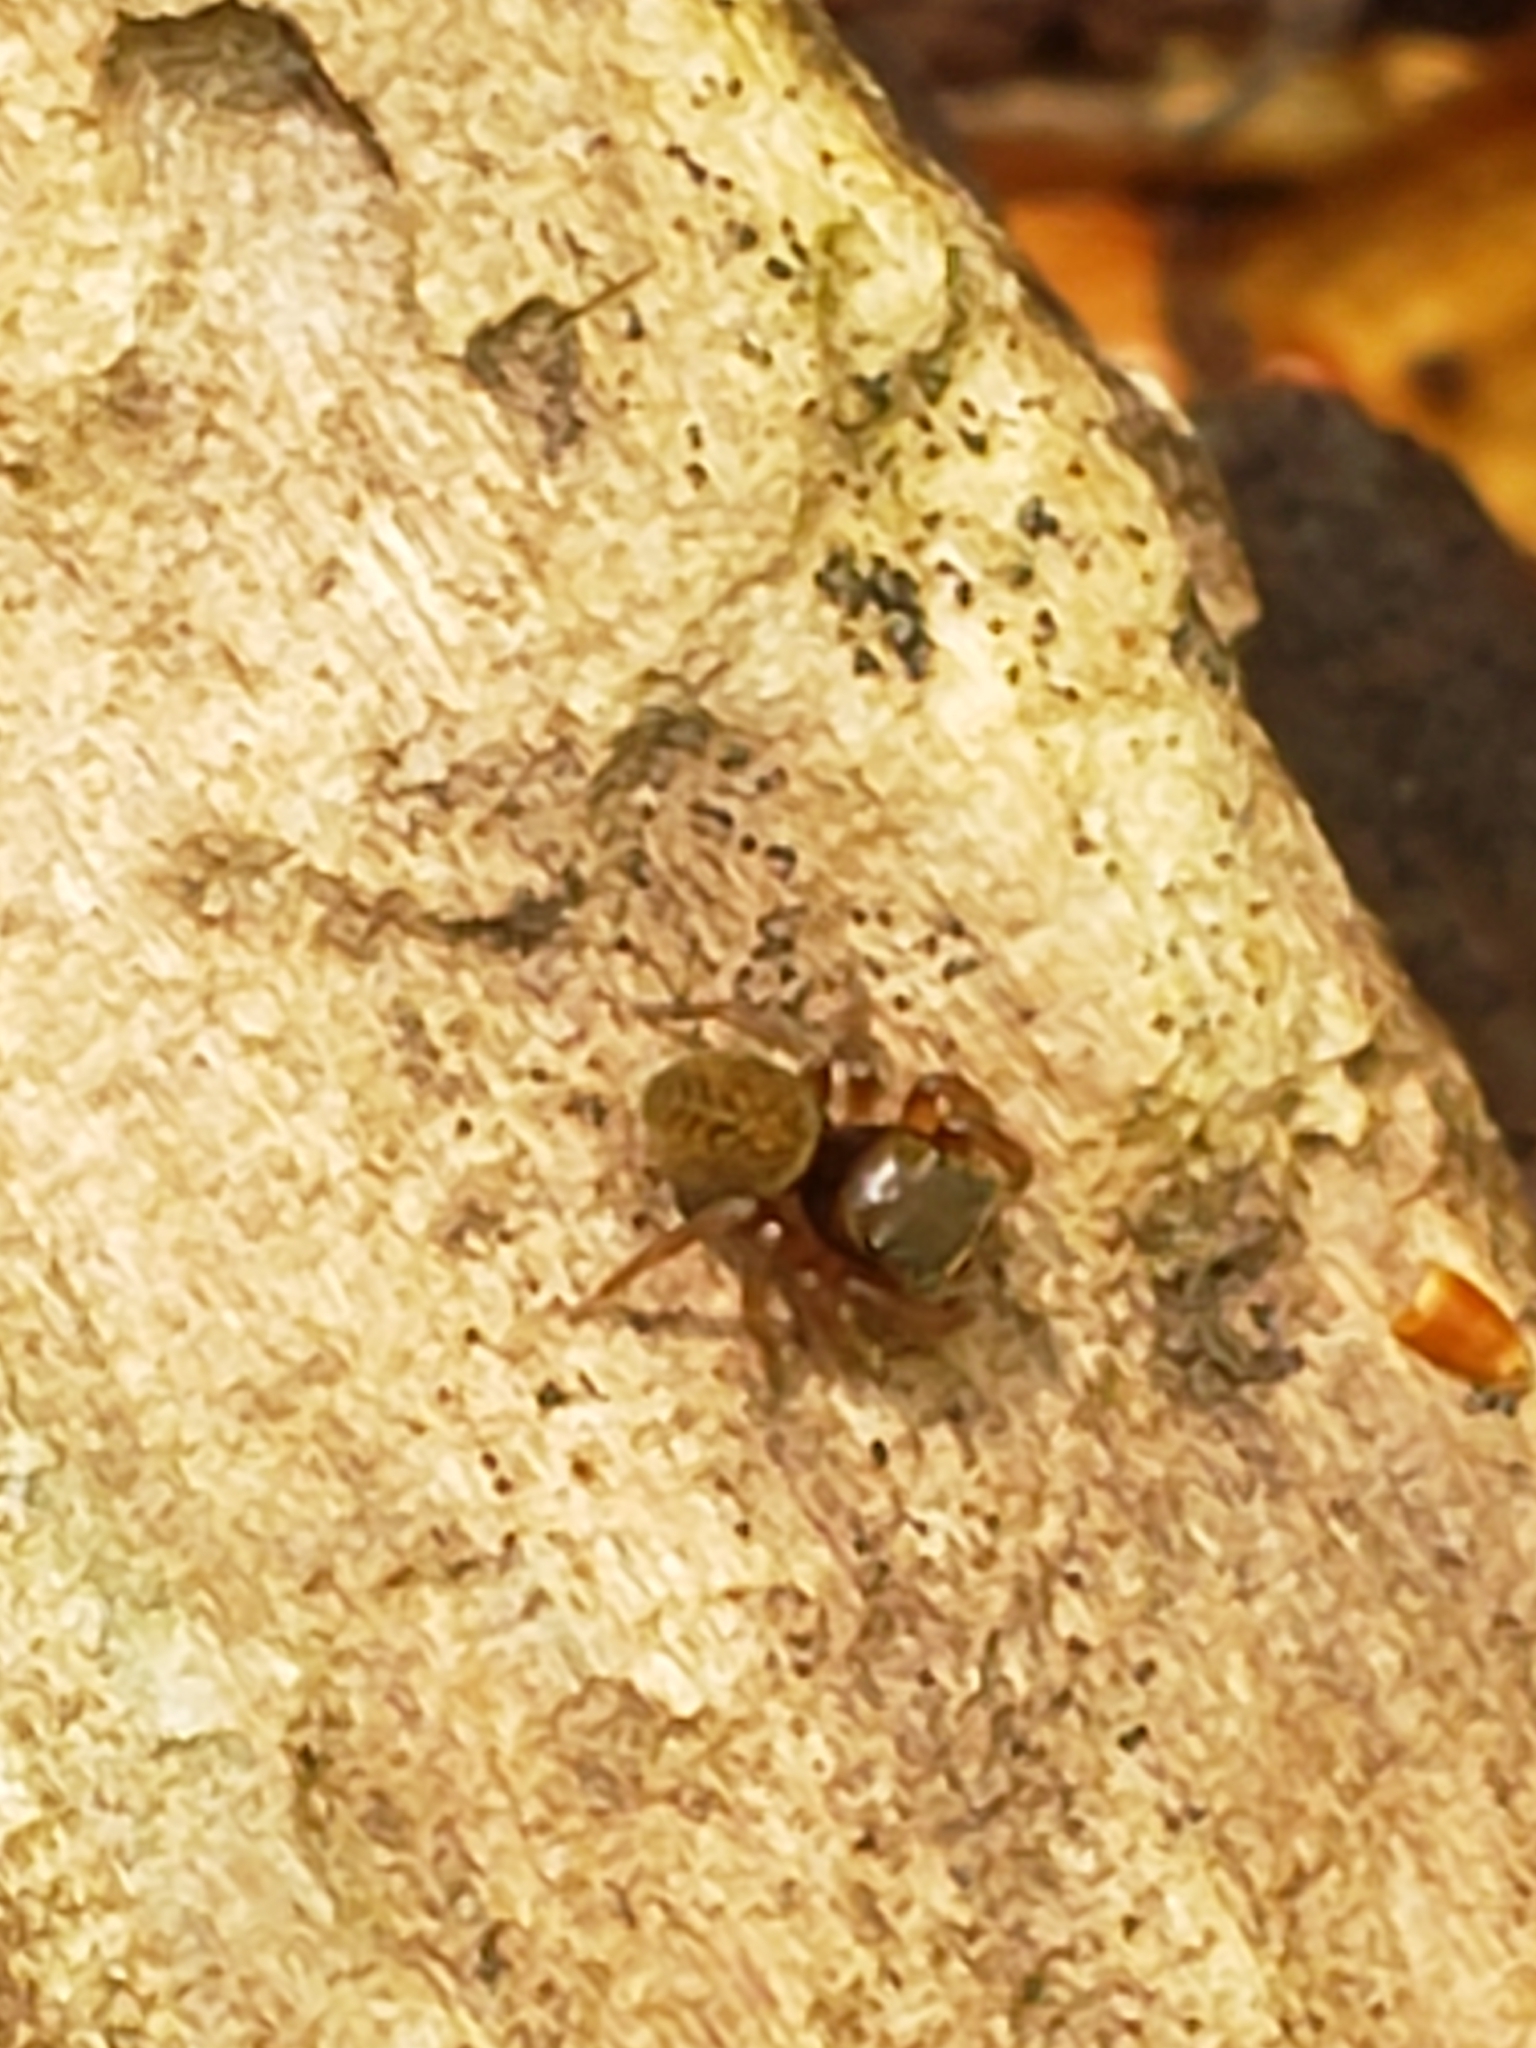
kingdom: Animalia
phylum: Arthropoda
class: Arachnida
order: Araneae
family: Salticidae
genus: Chinattus
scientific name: Chinattus parvulus
